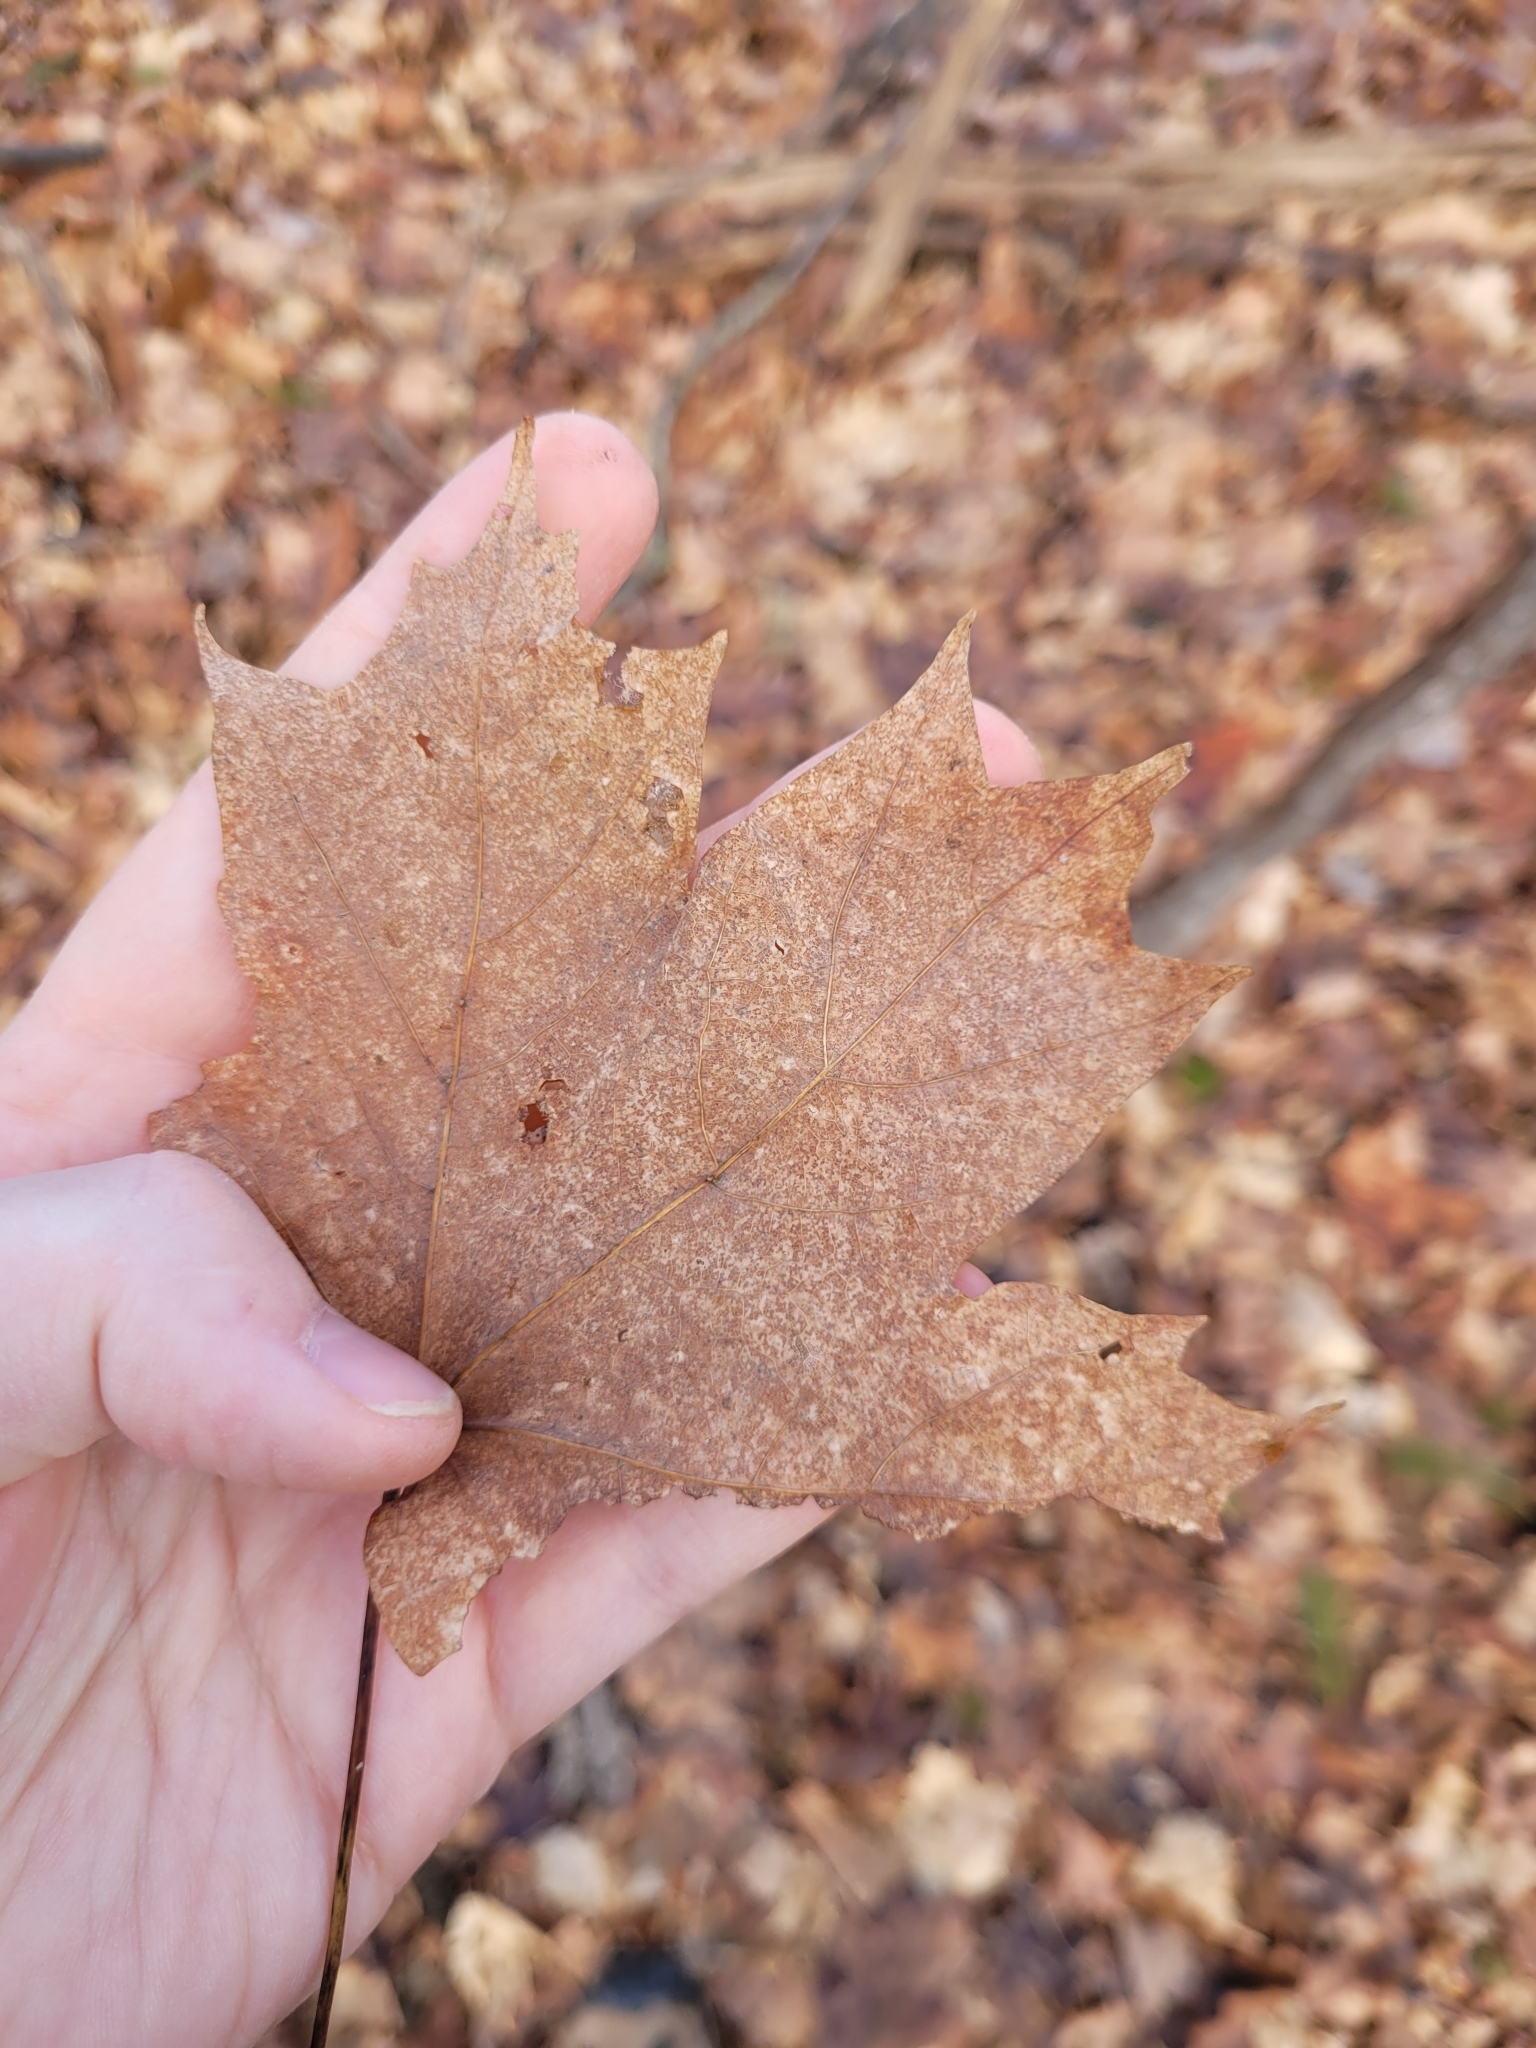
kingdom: Plantae
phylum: Tracheophyta
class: Magnoliopsida
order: Sapindales
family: Sapindaceae
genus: Acer
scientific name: Acer saccharum
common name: Sugar maple
